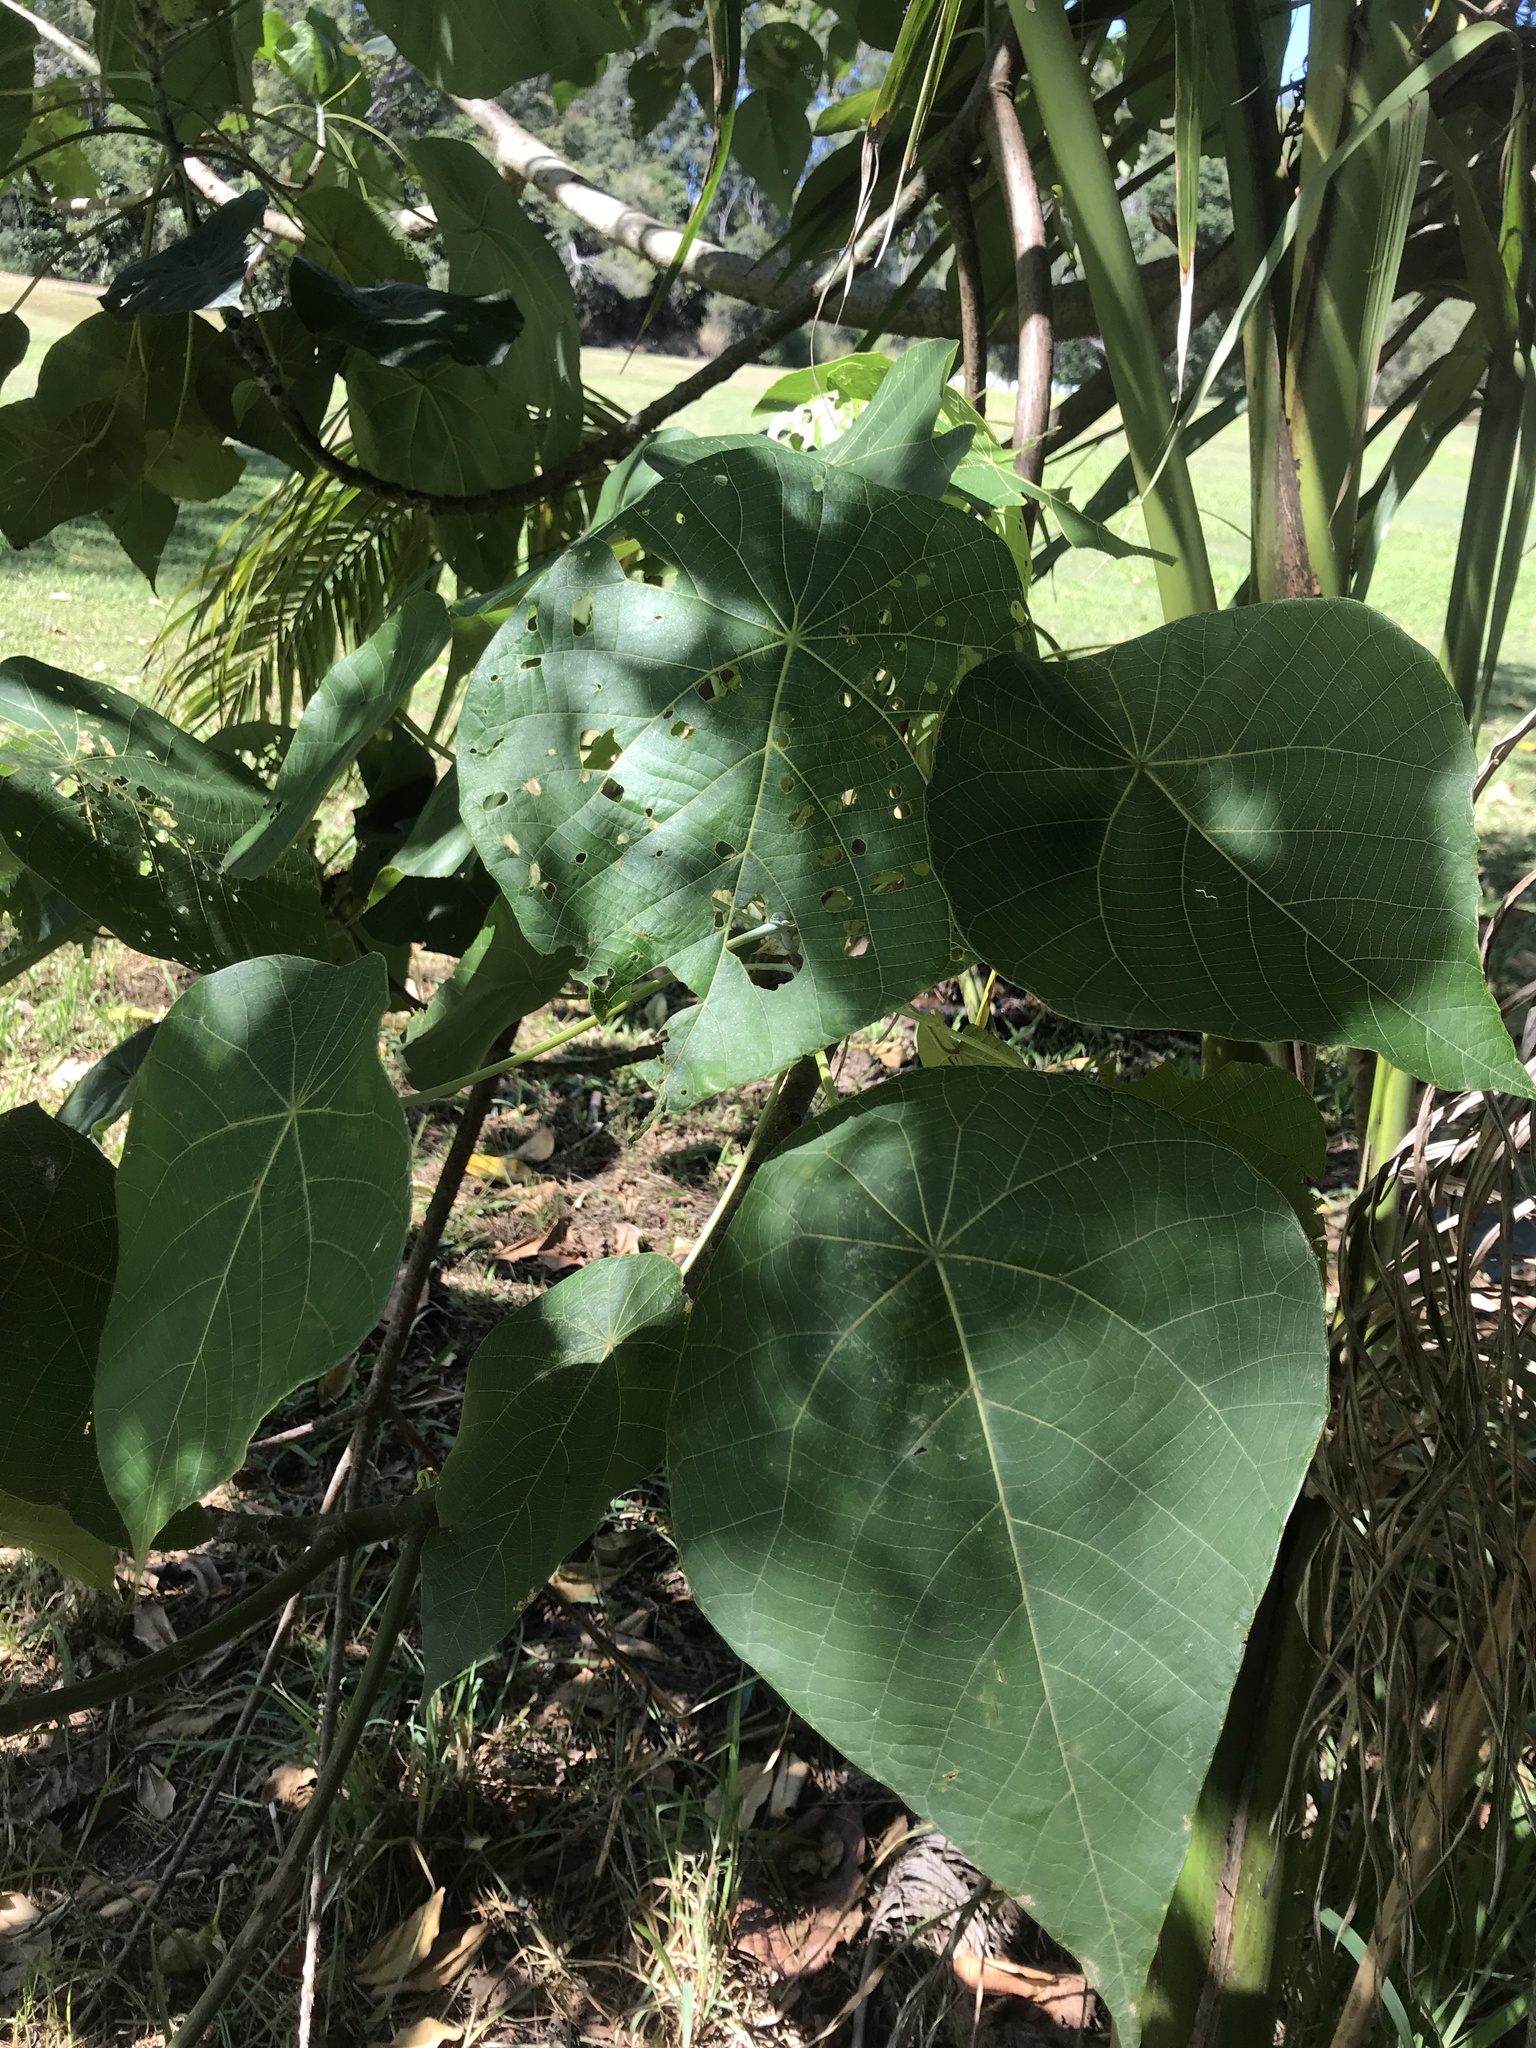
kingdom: Plantae
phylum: Tracheophyta
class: Magnoliopsida
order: Malpighiales
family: Euphorbiaceae
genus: Macaranga
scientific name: Macaranga tanarius
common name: Parasol leaf tree
